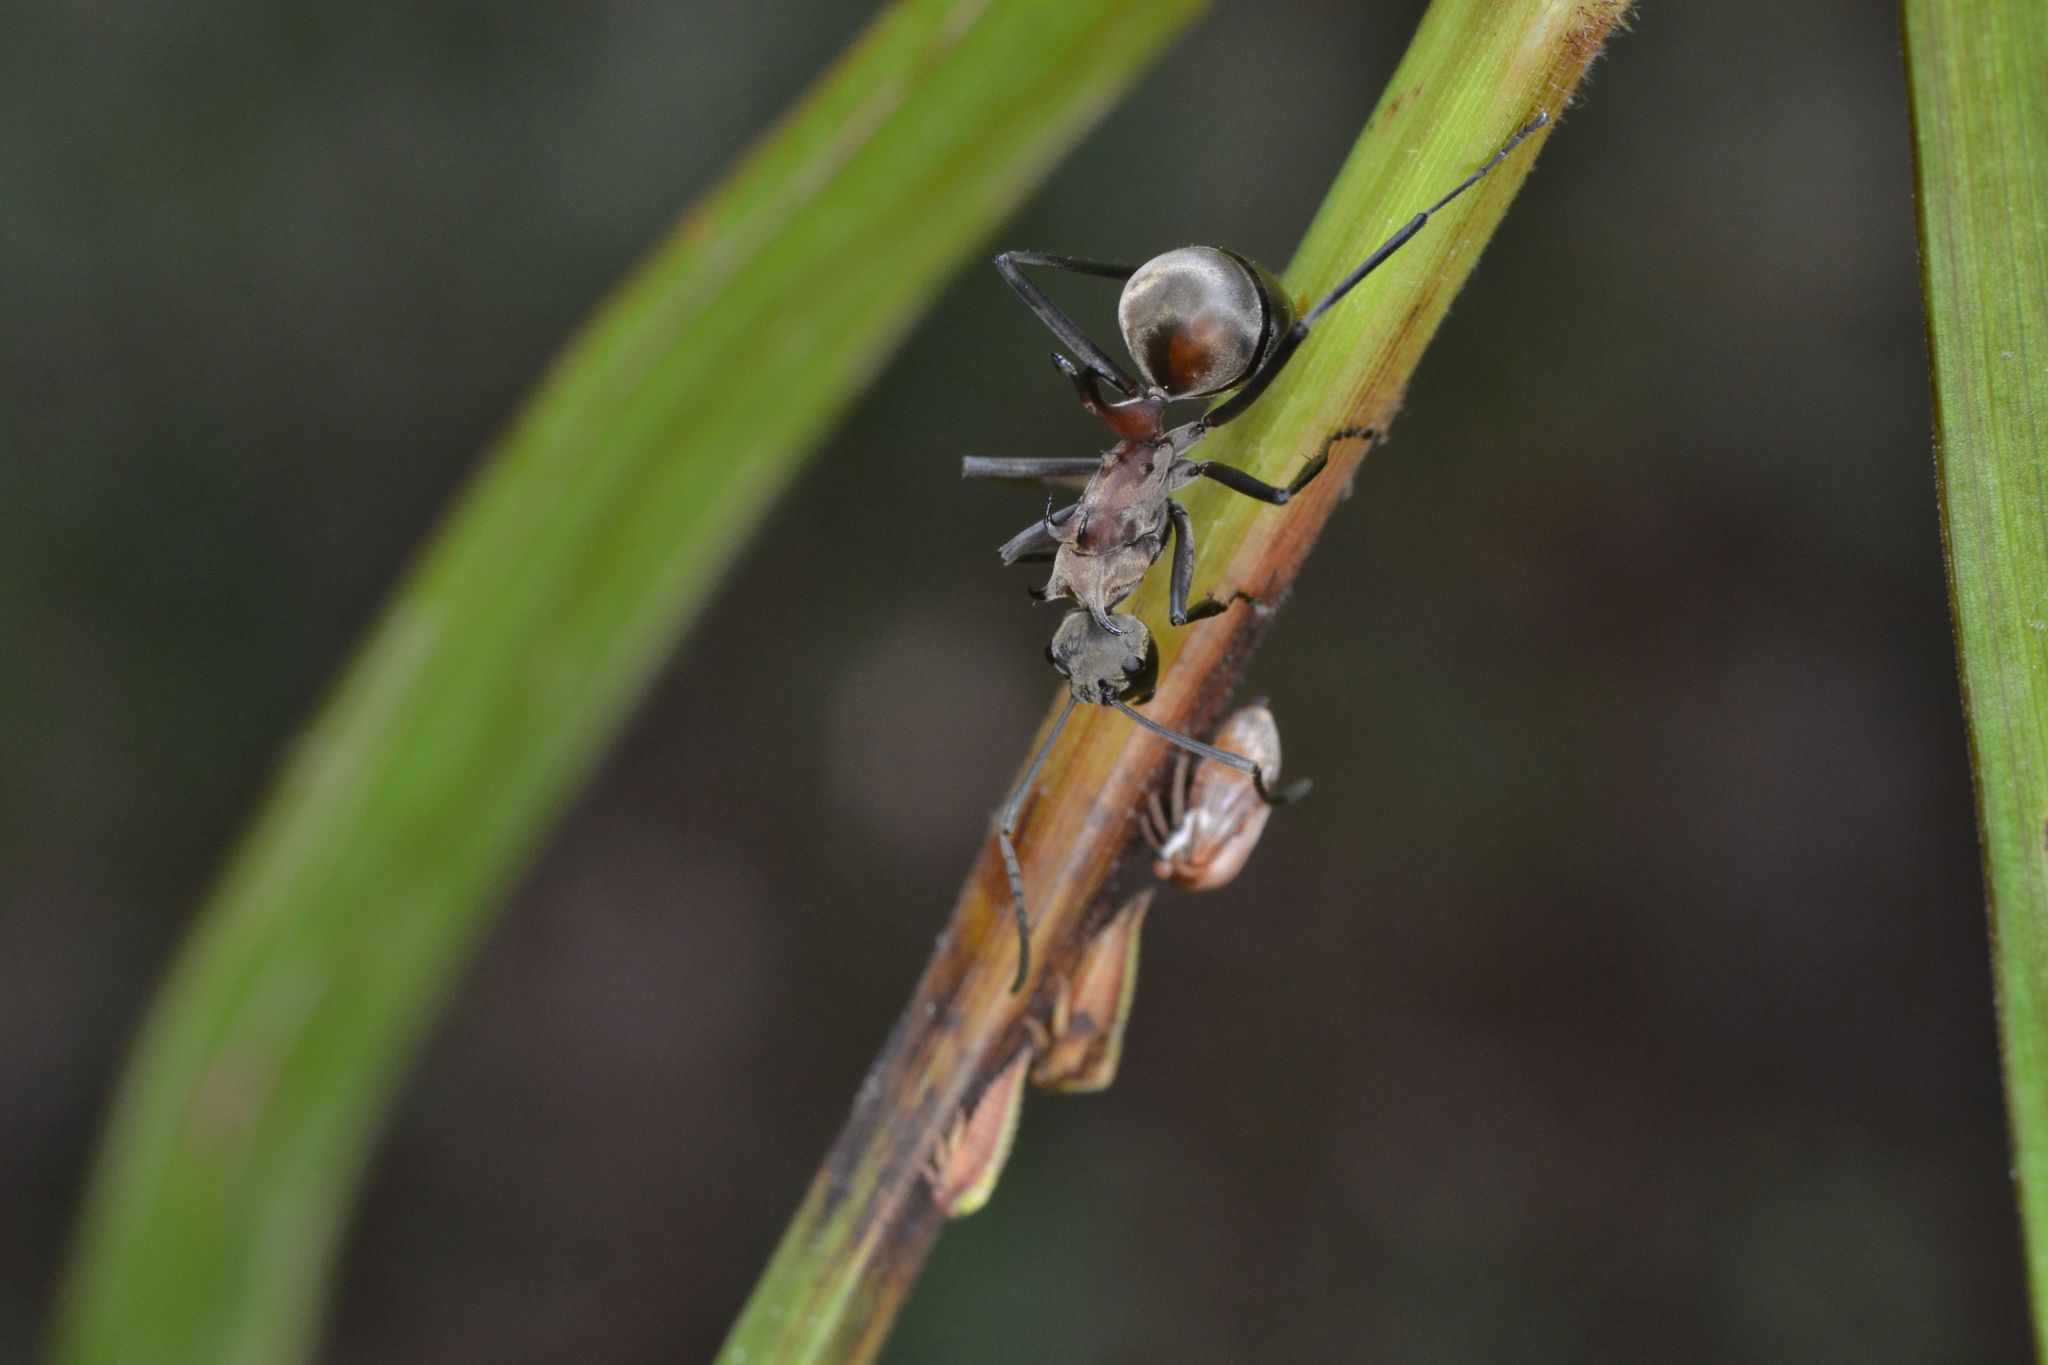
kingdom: Animalia
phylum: Arthropoda
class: Insecta
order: Hymenoptera
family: Formicidae
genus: Polyrhachis
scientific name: Polyrhachis olybria
